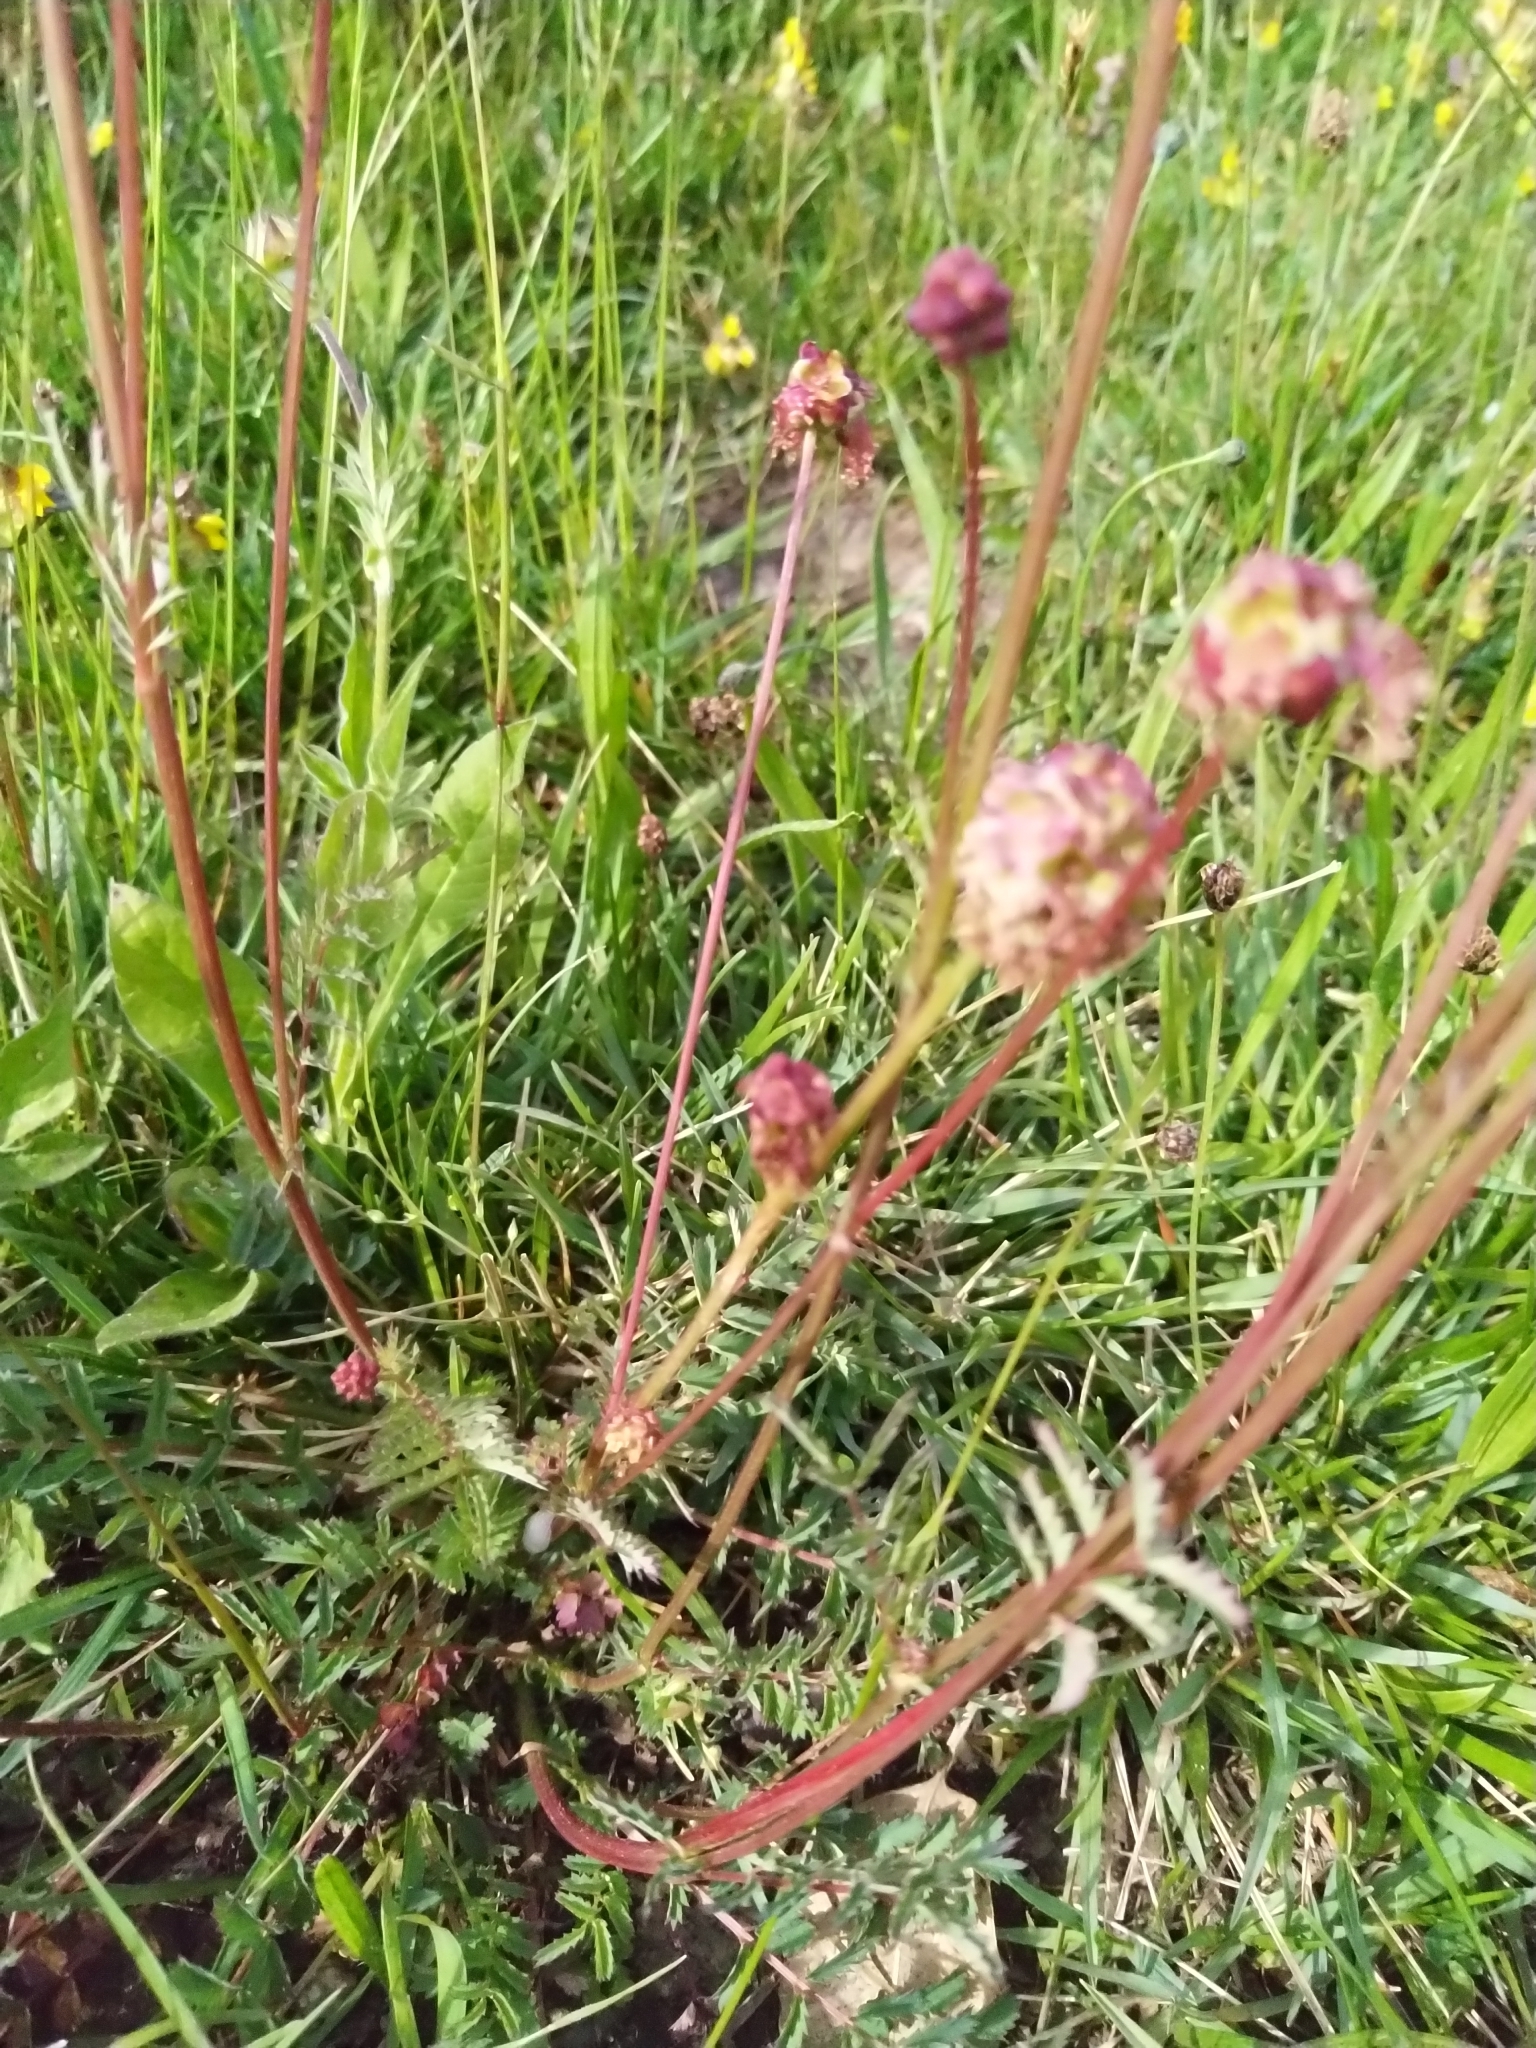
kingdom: Plantae
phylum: Tracheophyta
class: Magnoliopsida
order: Rosales
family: Rosaceae
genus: Poterium
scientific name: Poterium sanguisorba
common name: Salad burnet
